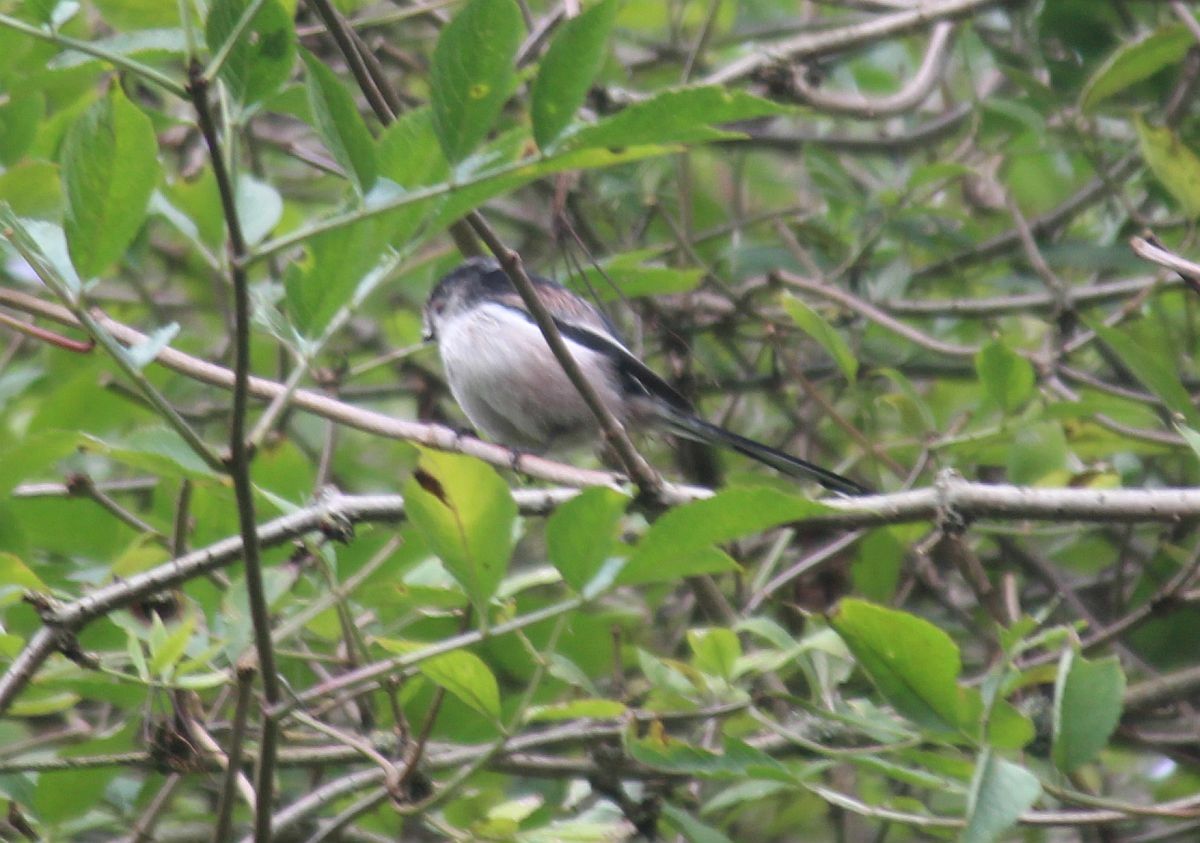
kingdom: Animalia
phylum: Chordata
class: Aves
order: Passeriformes
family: Aegithalidae
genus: Aegithalos
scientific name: Aegithalos caudatus
